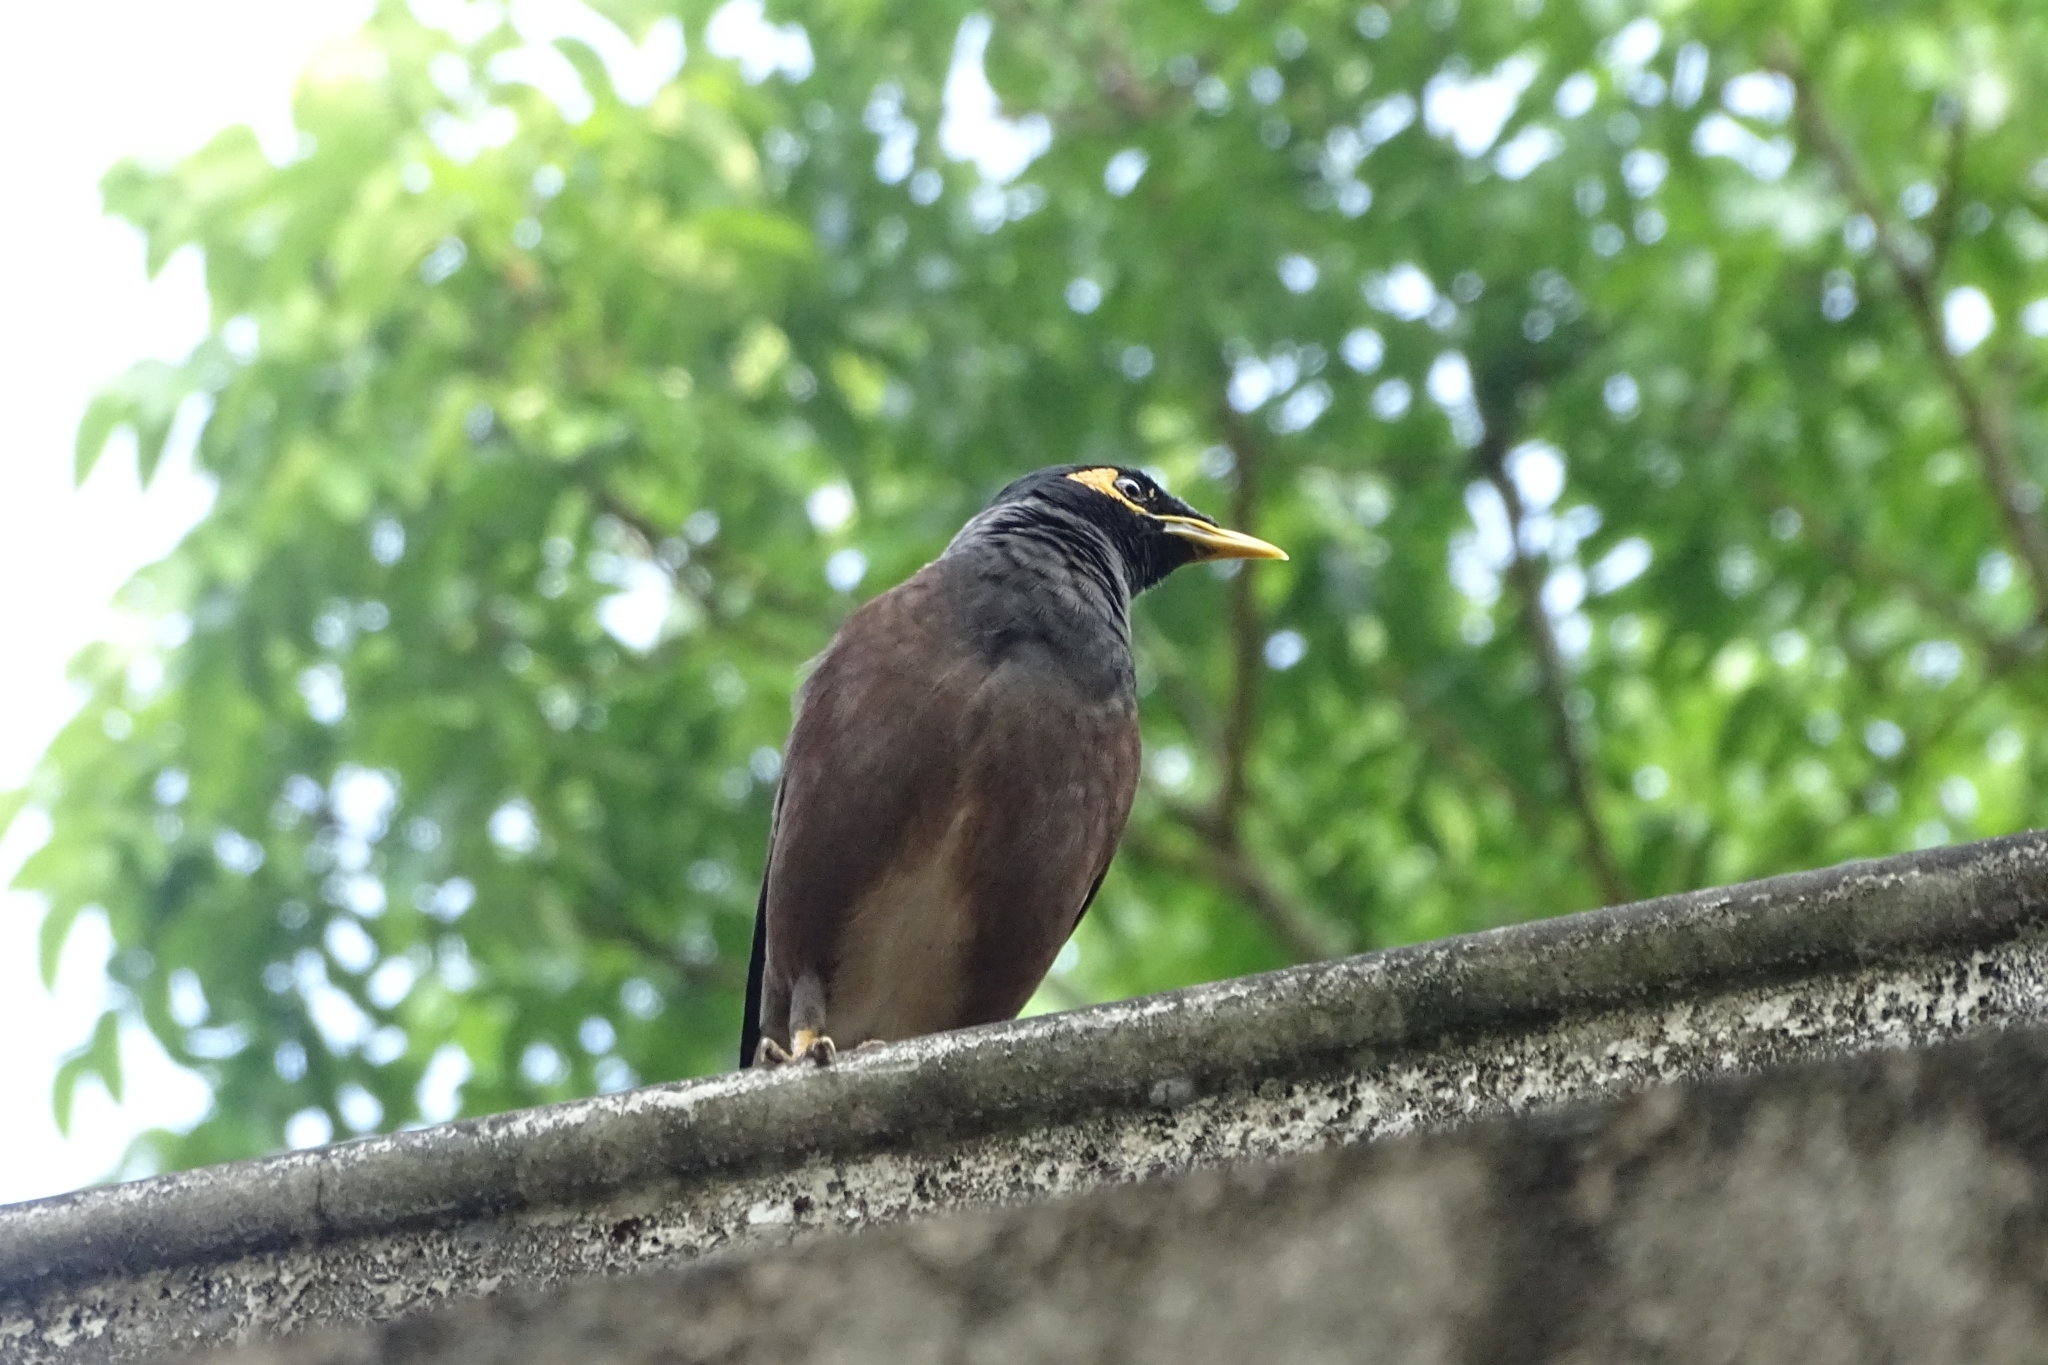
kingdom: Animalia
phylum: Chordata
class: Aves
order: Passeriformes
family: Sturnidae
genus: Acridotheres
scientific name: Acridotheres tristis
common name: Common myna
